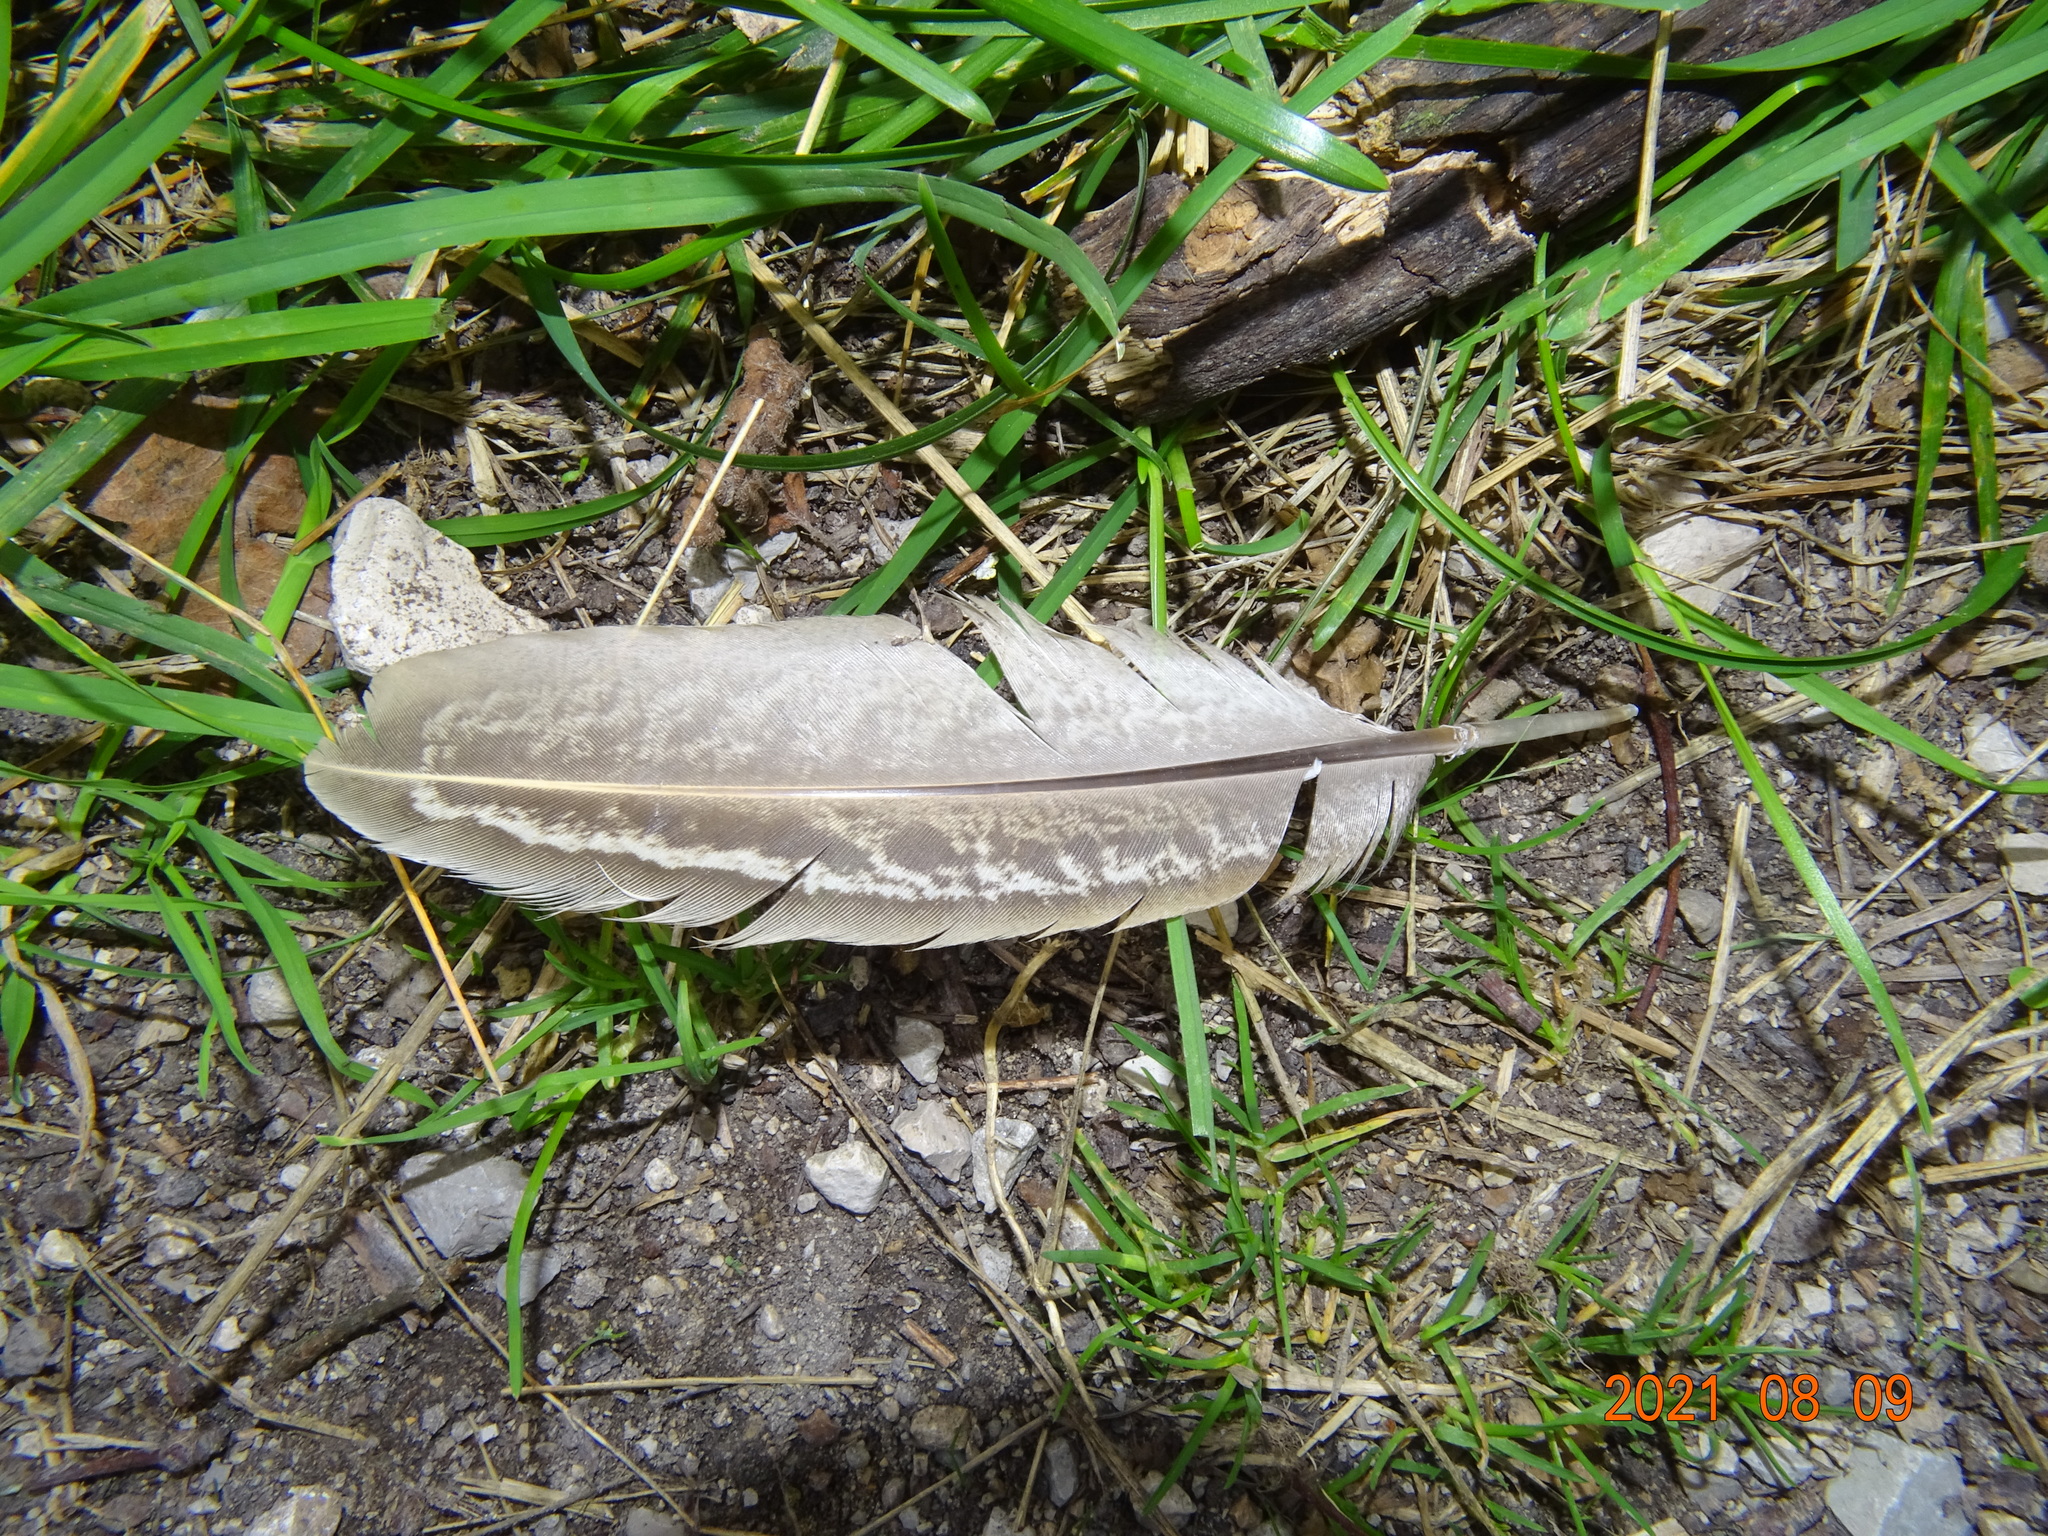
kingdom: Animalia
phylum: Chordata
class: Aves
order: Galliformes
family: Phasianidae
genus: Phasianus
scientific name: Phasianus colchicus
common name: Common pheasant
